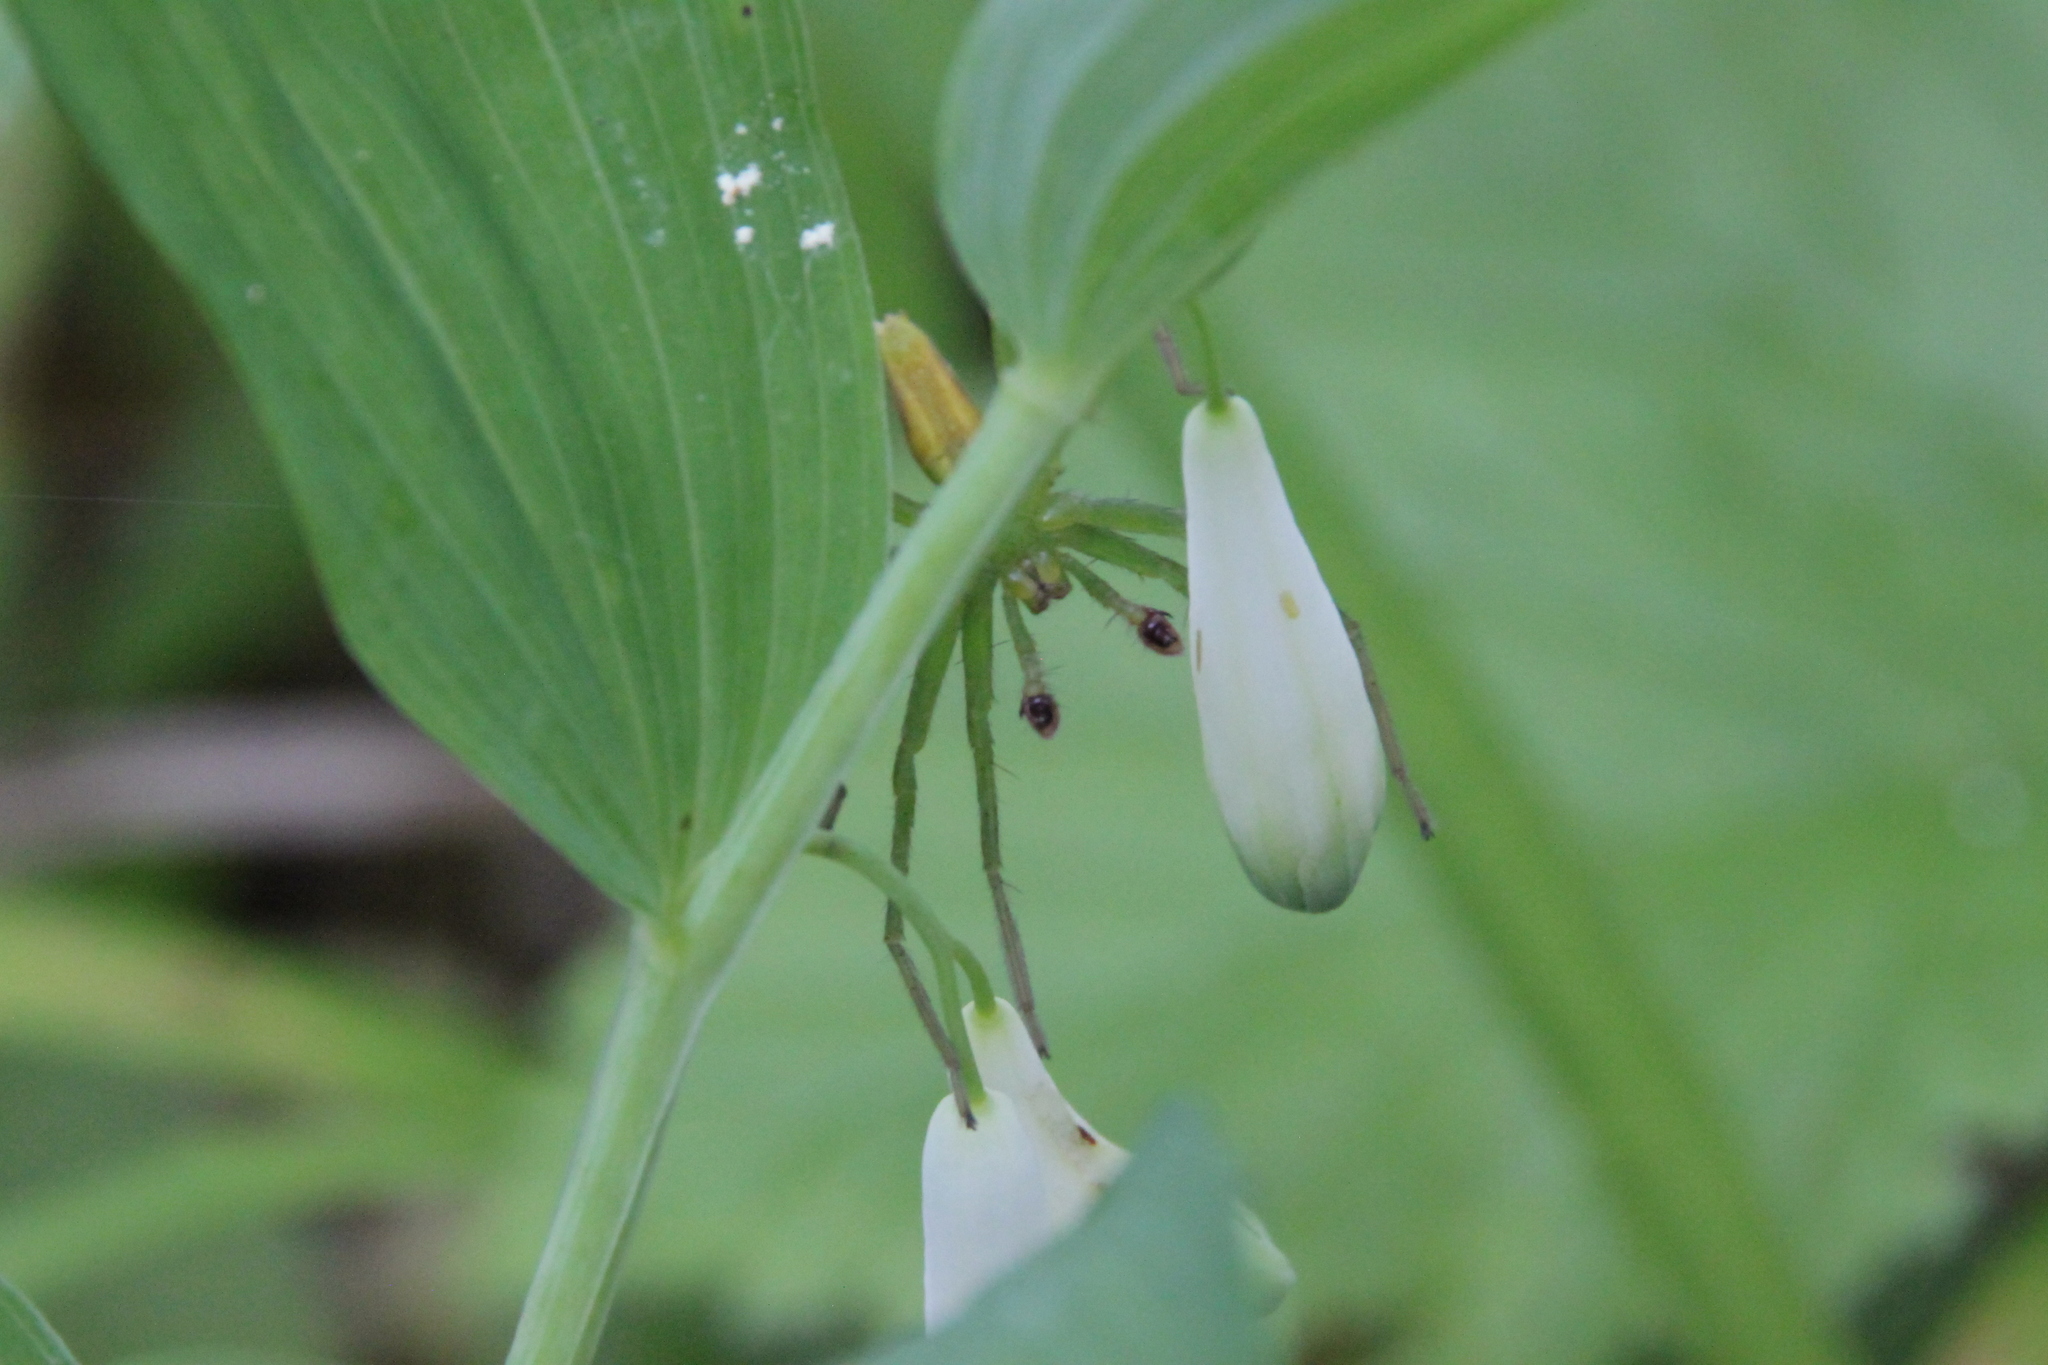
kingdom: Animalia
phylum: Arthropoda
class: Arachnida
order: Araneae
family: Sparassidae
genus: Micrommata
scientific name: Micrommata virescens
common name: Green spider
